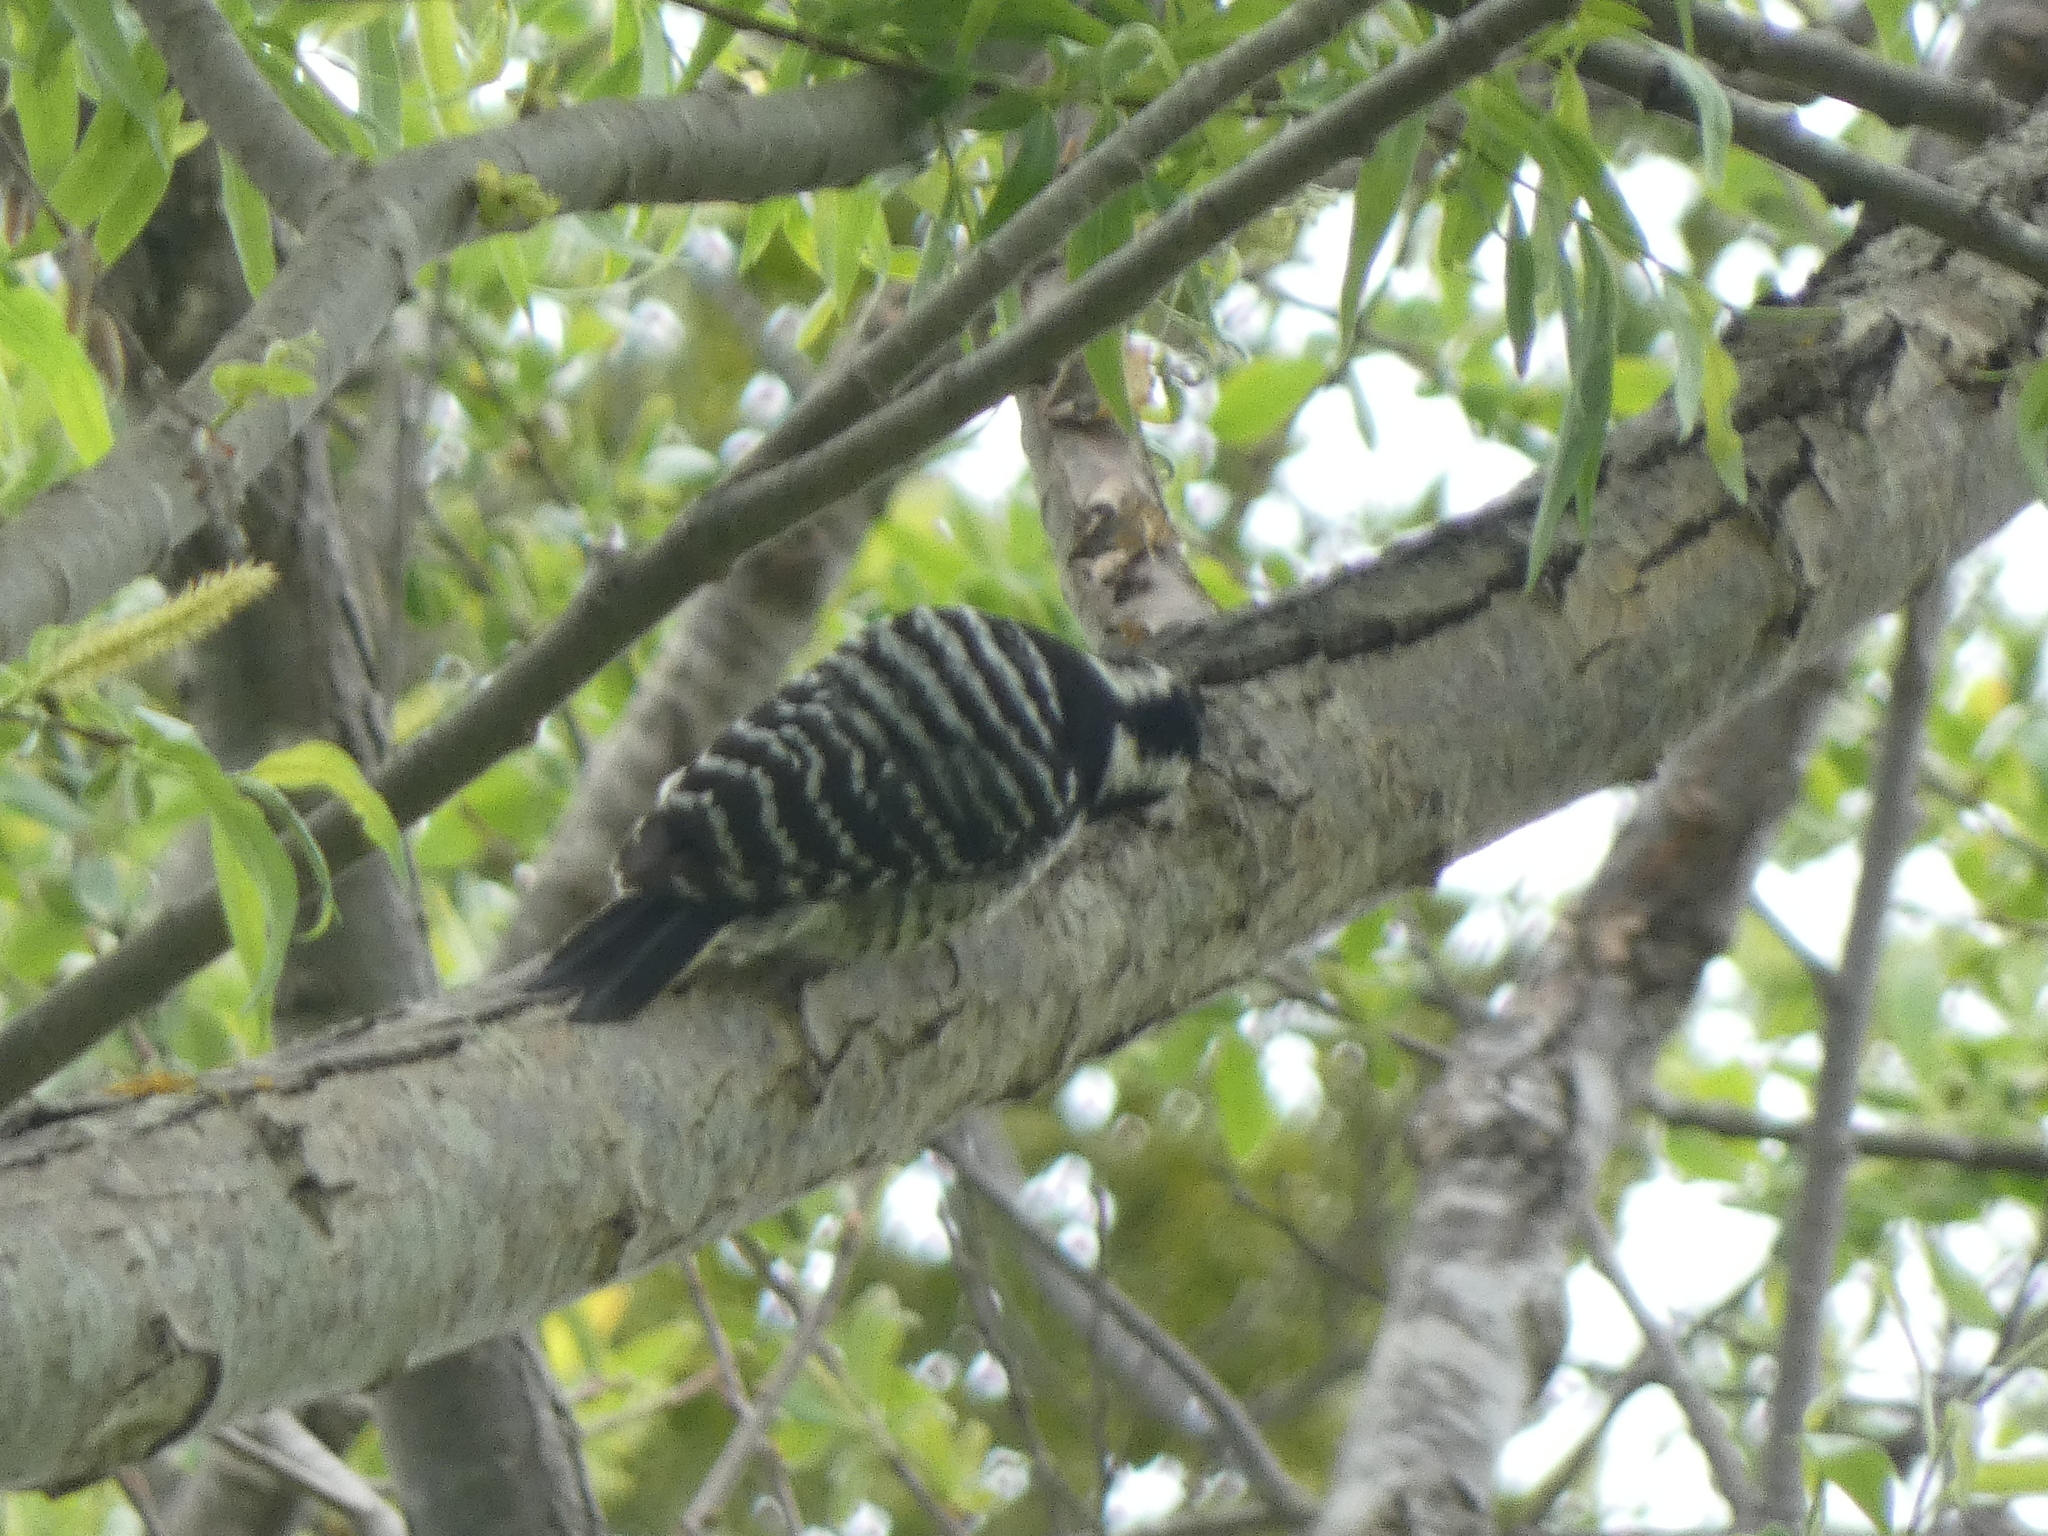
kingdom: Animalia
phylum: Chordata
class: Aves
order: Piciformes
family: Picidae
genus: Dryobates
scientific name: Dryobates nuttallii
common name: Nuttall's woodpecker
